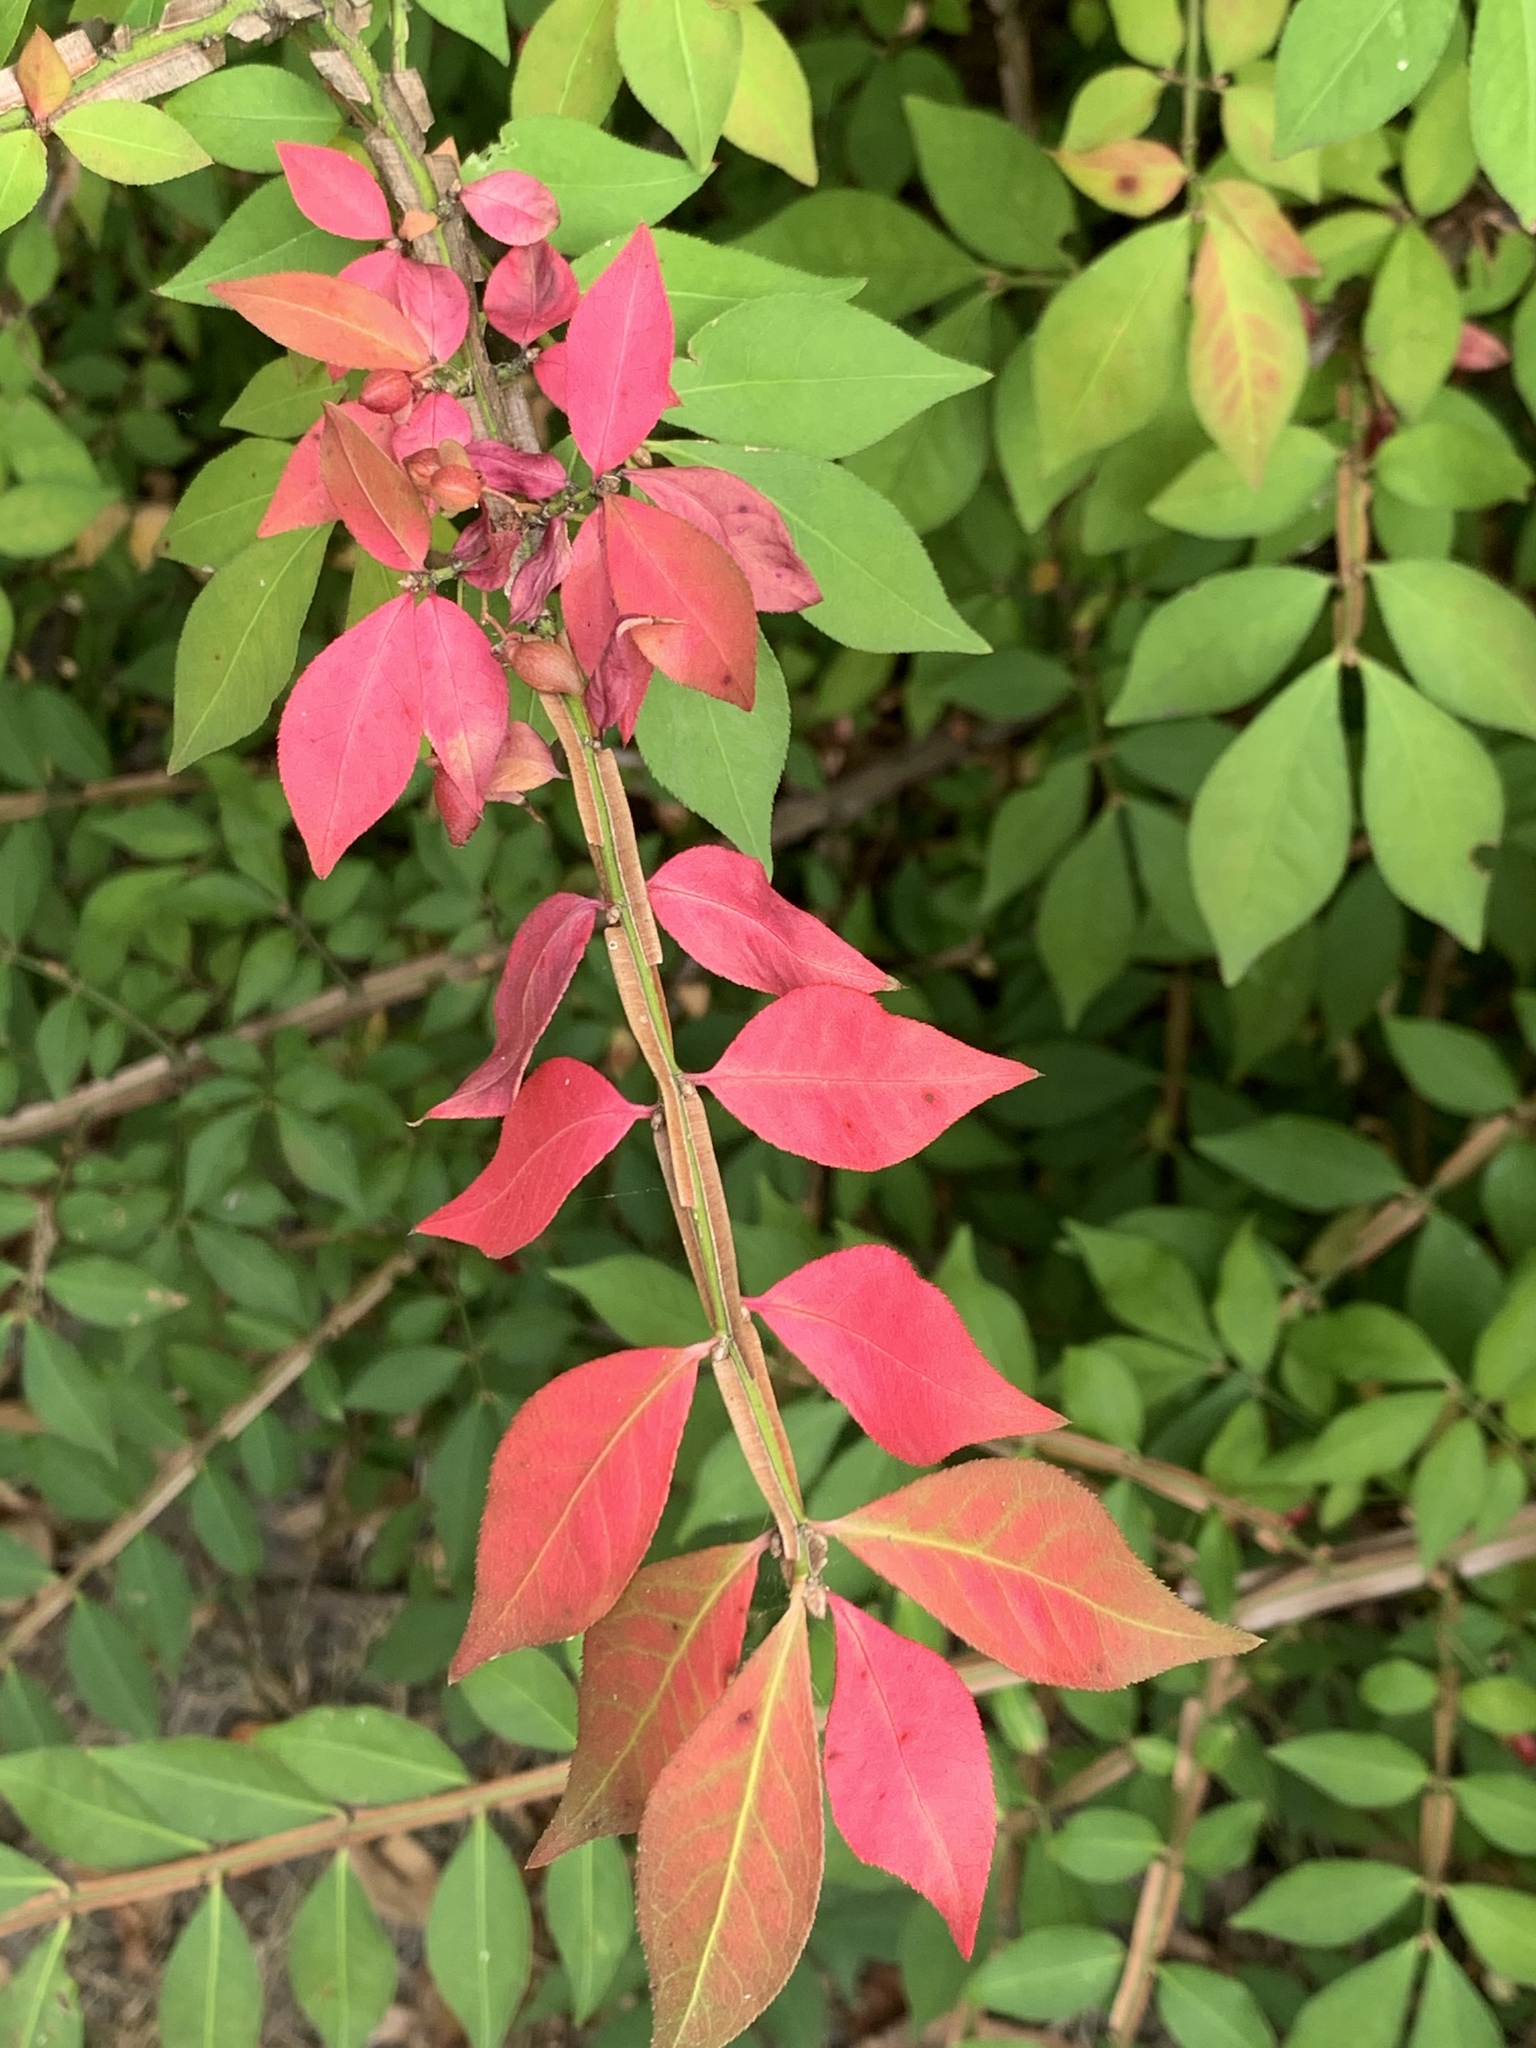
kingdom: Plantae
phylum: Tracheophyta
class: Magnoliopsida
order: Celastrales
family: Celastraceae
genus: Euonymus
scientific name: Euonymus alatus
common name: Winged euonymus
